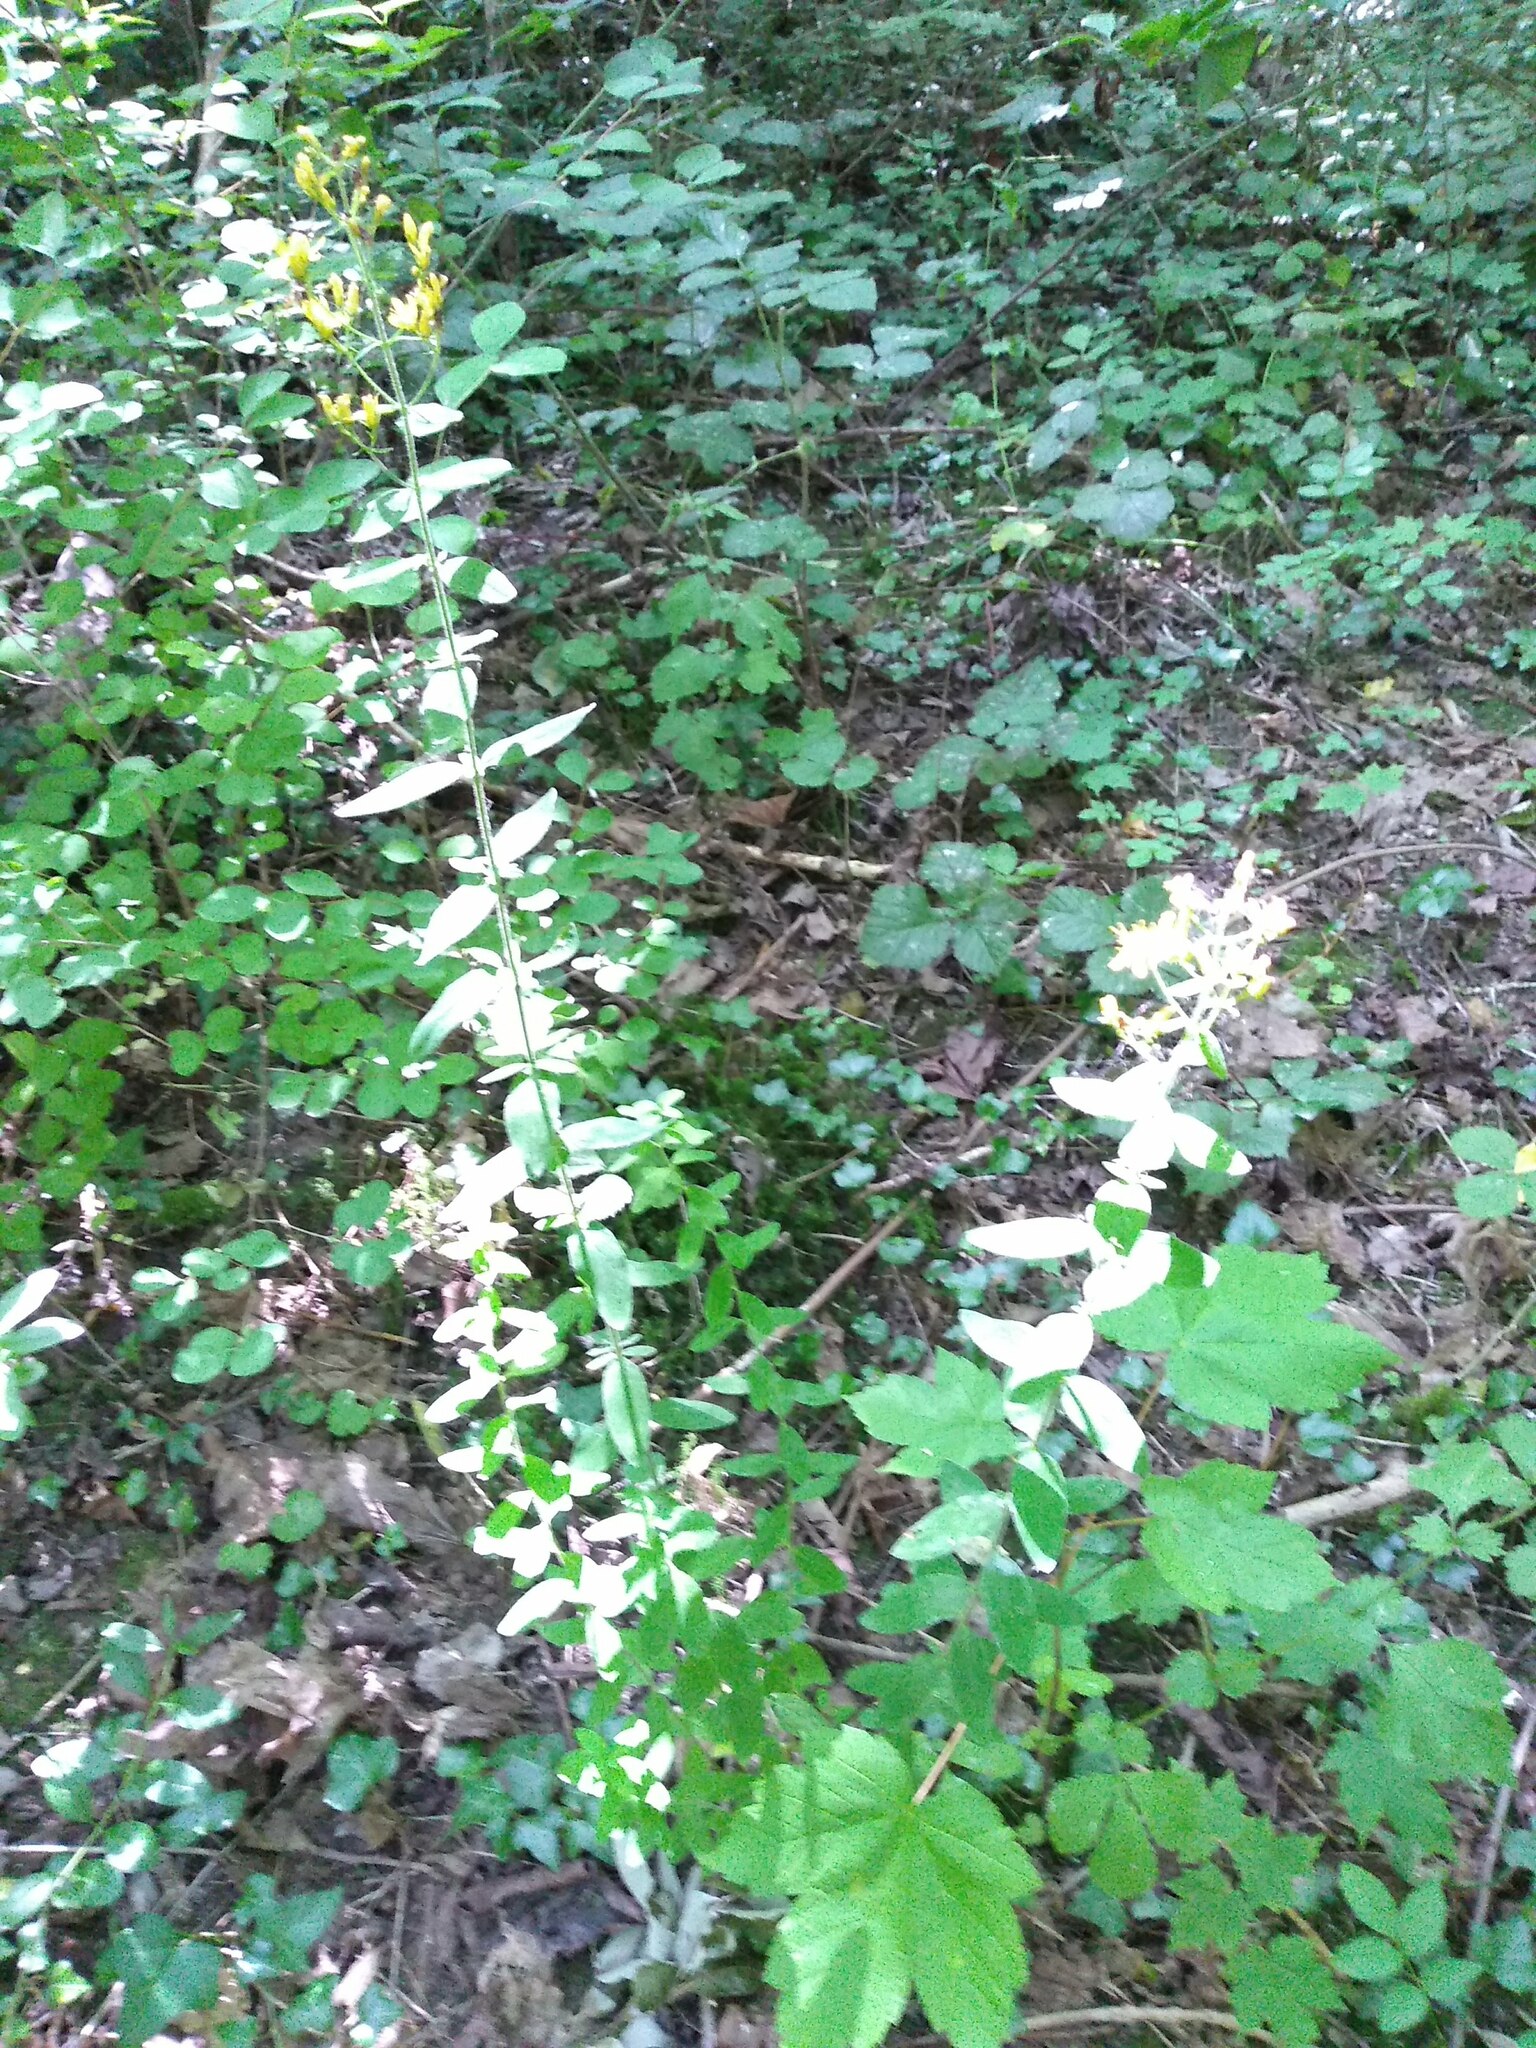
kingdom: Plantae
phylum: Tracheophyta
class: Magnoliopsida
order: Malpighiales
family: Hypericaceae
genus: Hypericum
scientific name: Hypericum hirsutum
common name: Hairy st. john's-wort
